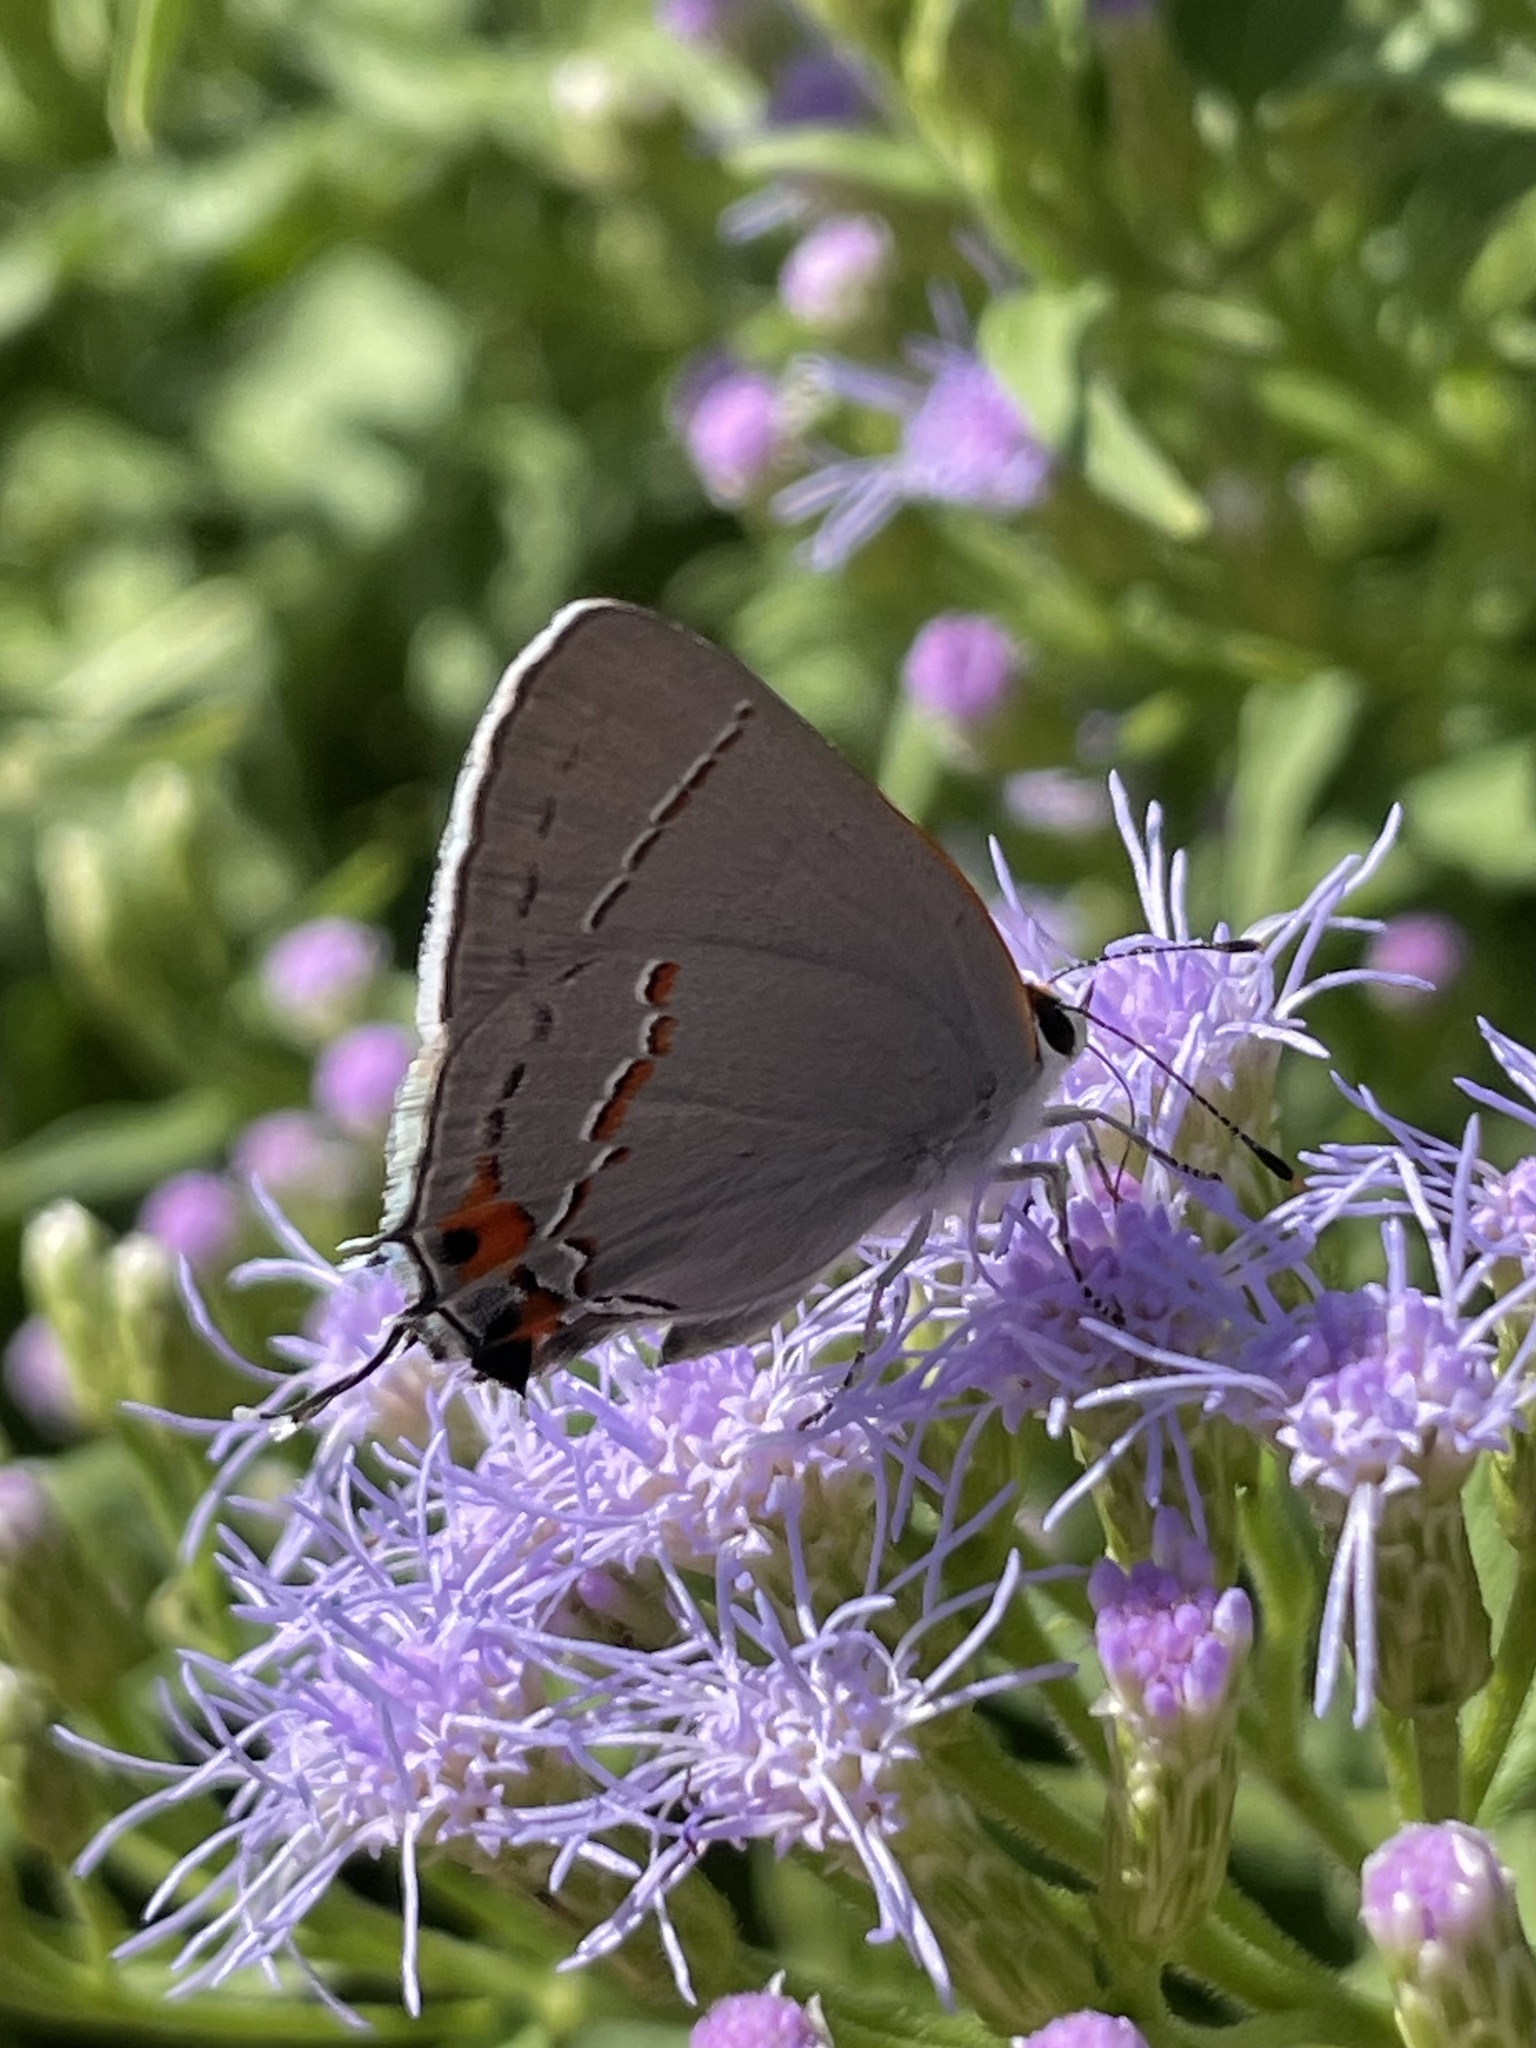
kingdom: Animalia
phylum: Arthropoda
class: Insecta
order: Lepidoptera
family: Lycaenidae
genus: Strymon
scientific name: Strymon melinus
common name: Gray hairstreak
